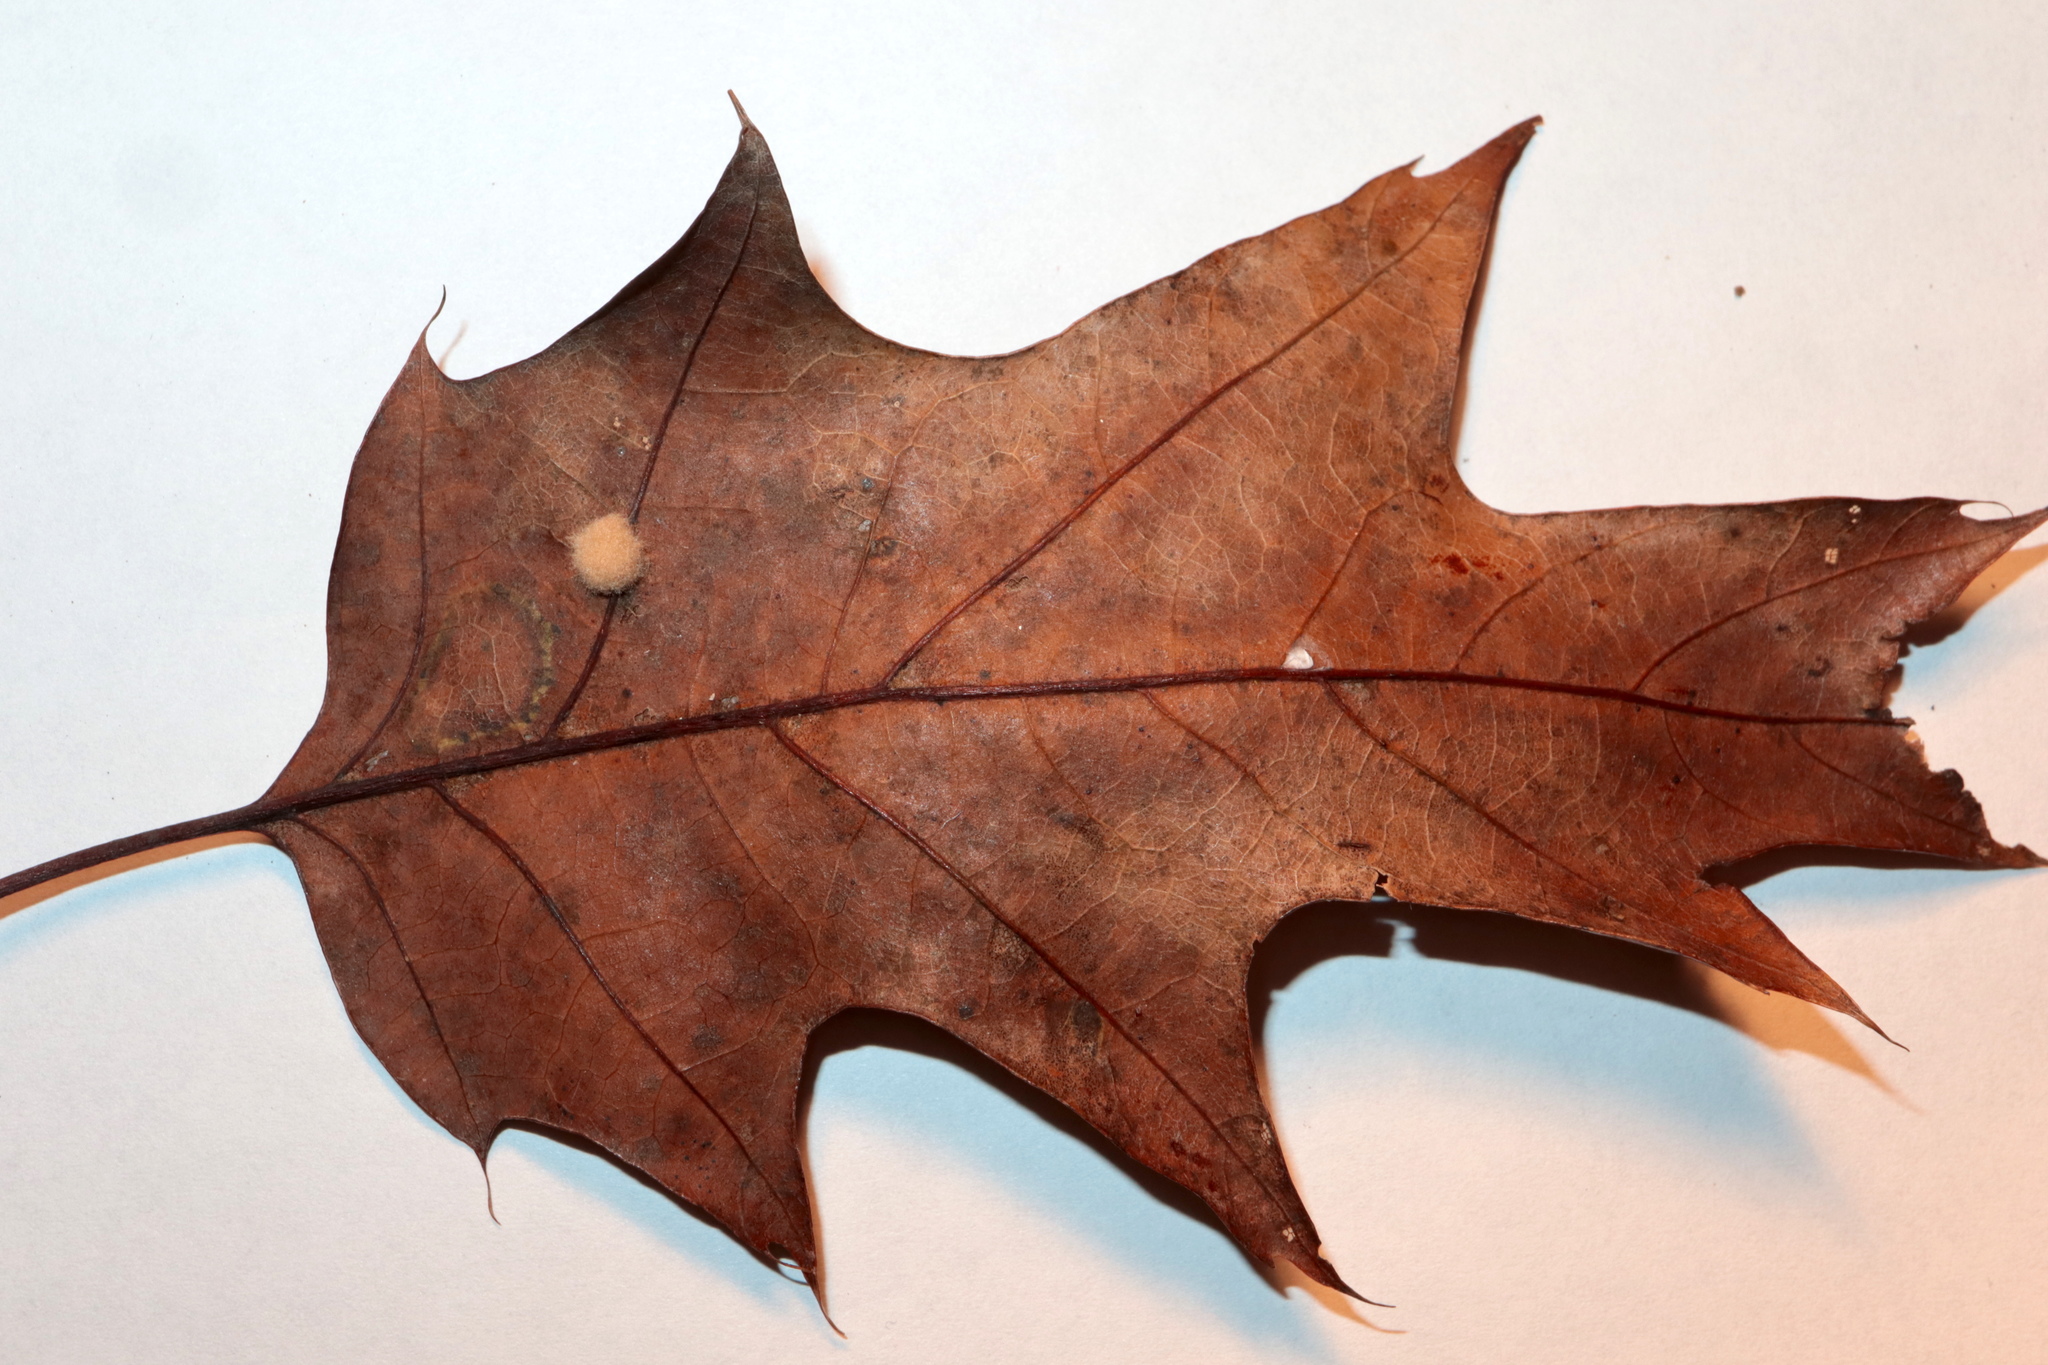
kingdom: Animalia
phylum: Arthropoda
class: Insecta
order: Hymenoptera
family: Cynipidae
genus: Callirhytis
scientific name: Callirhytis
